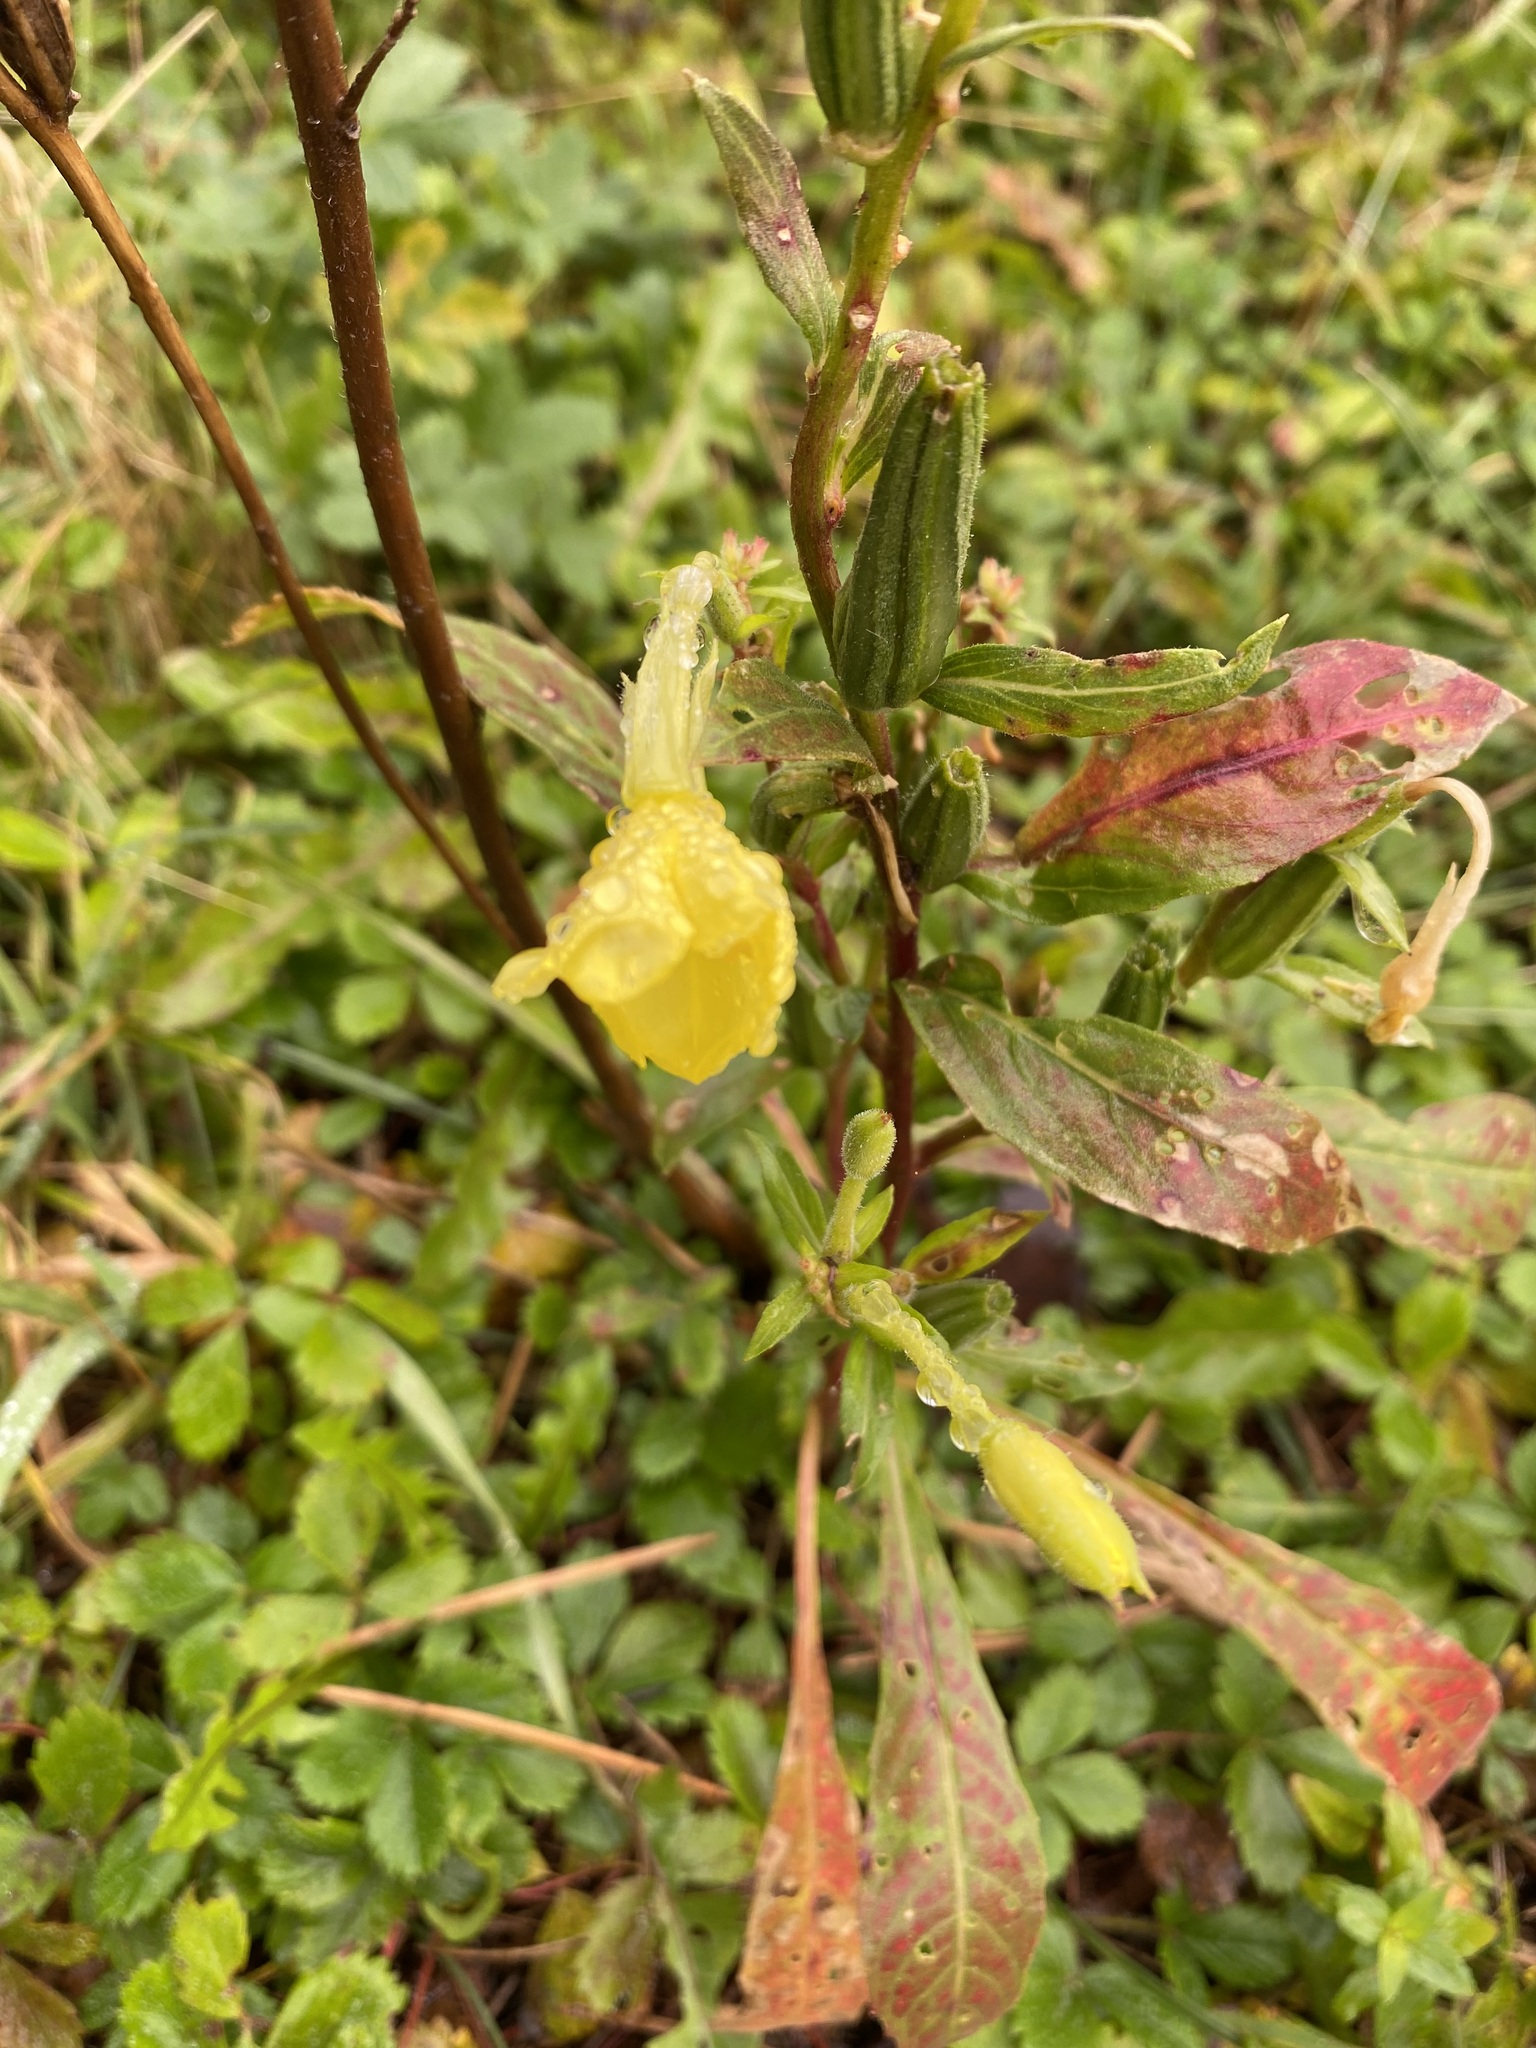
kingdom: Plantae
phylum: Tracheophyta
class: Magnoliopsida
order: Myrtales
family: Onagraceae
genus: Oenothera
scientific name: Oenothera biennis
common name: Common evening-primrose
